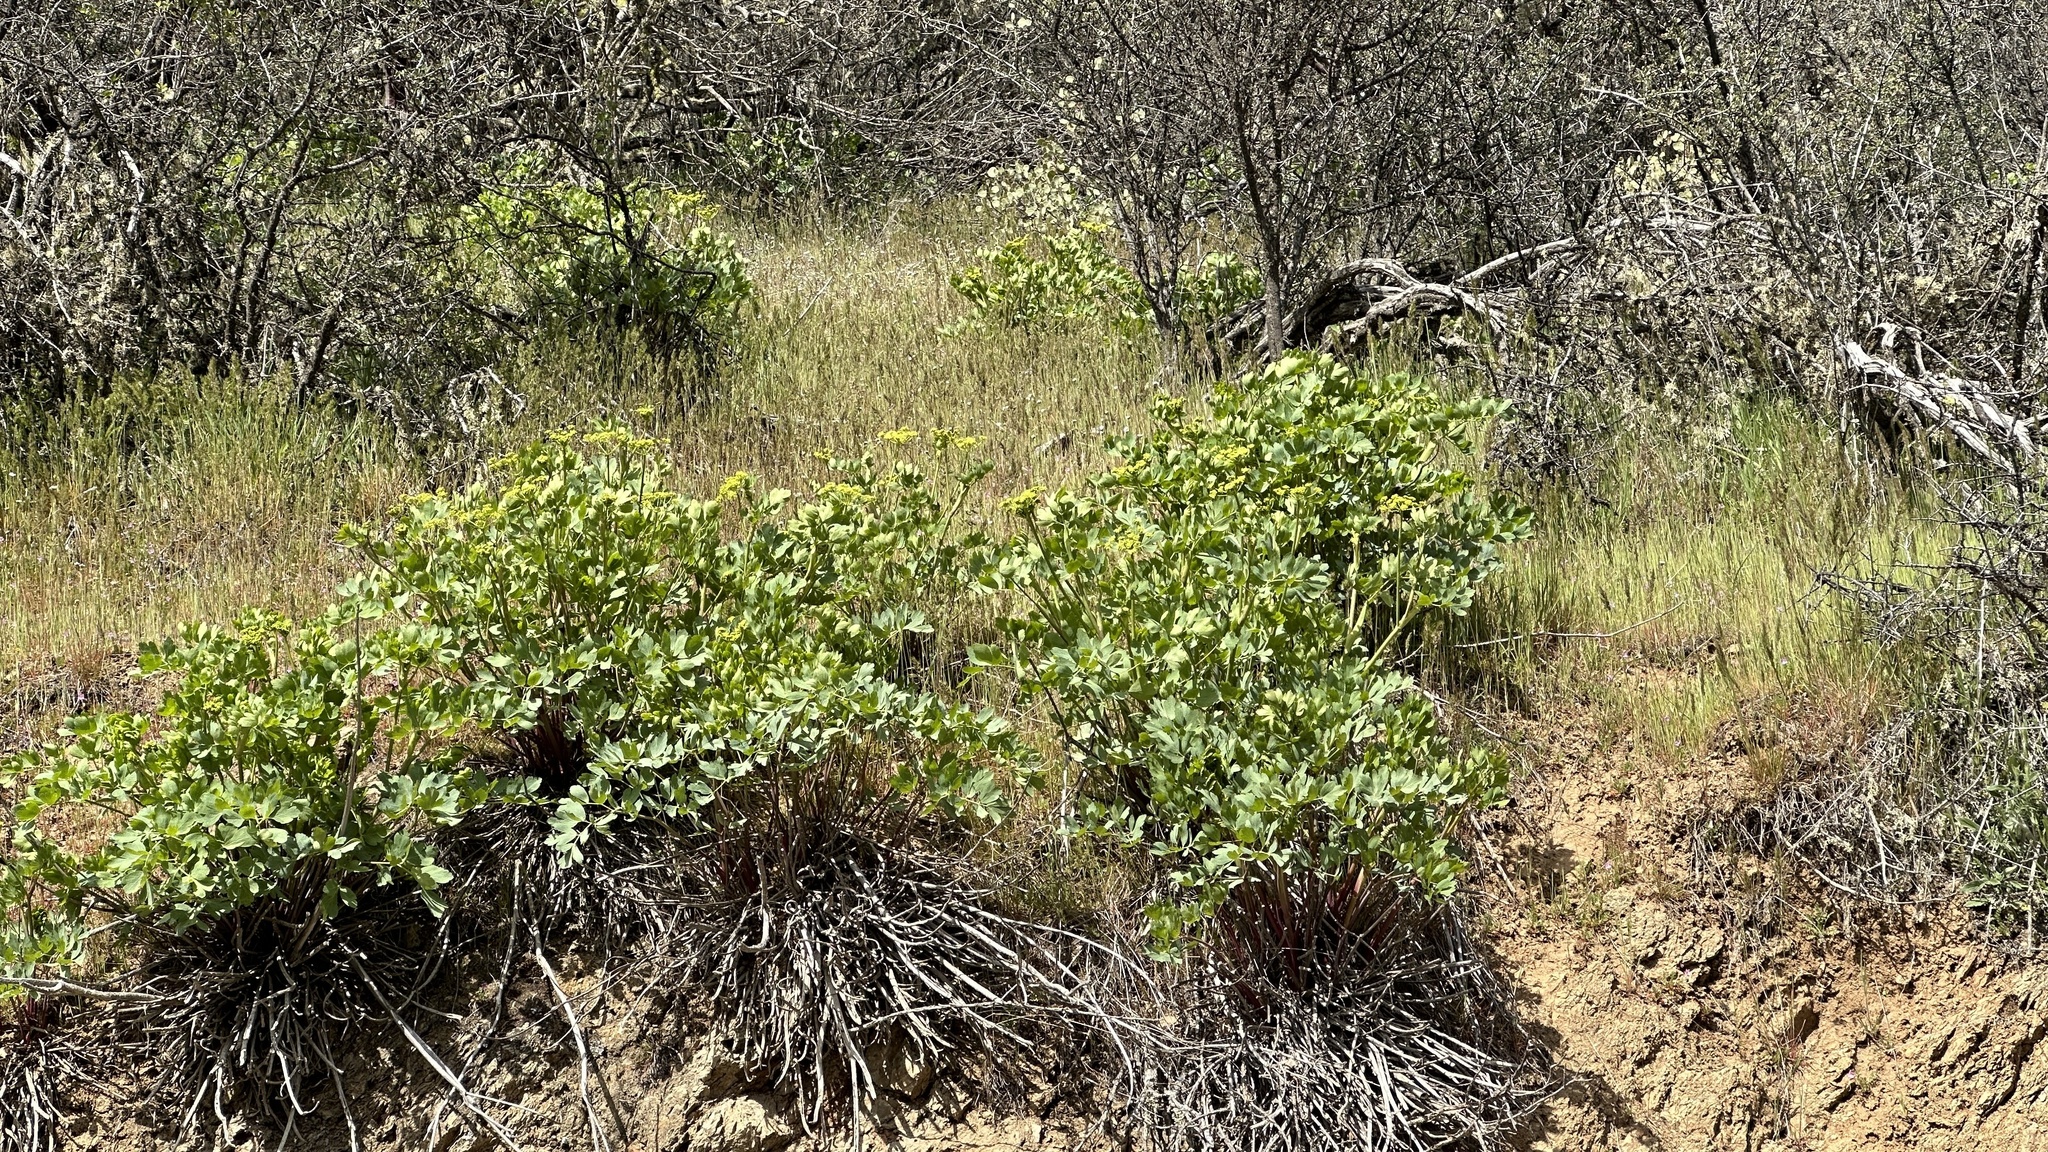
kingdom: Plantae
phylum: Tracheophyta
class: Magnoliopsida
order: Apiales
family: Apiaceae
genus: Lomatium
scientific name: Lomatium californicum
